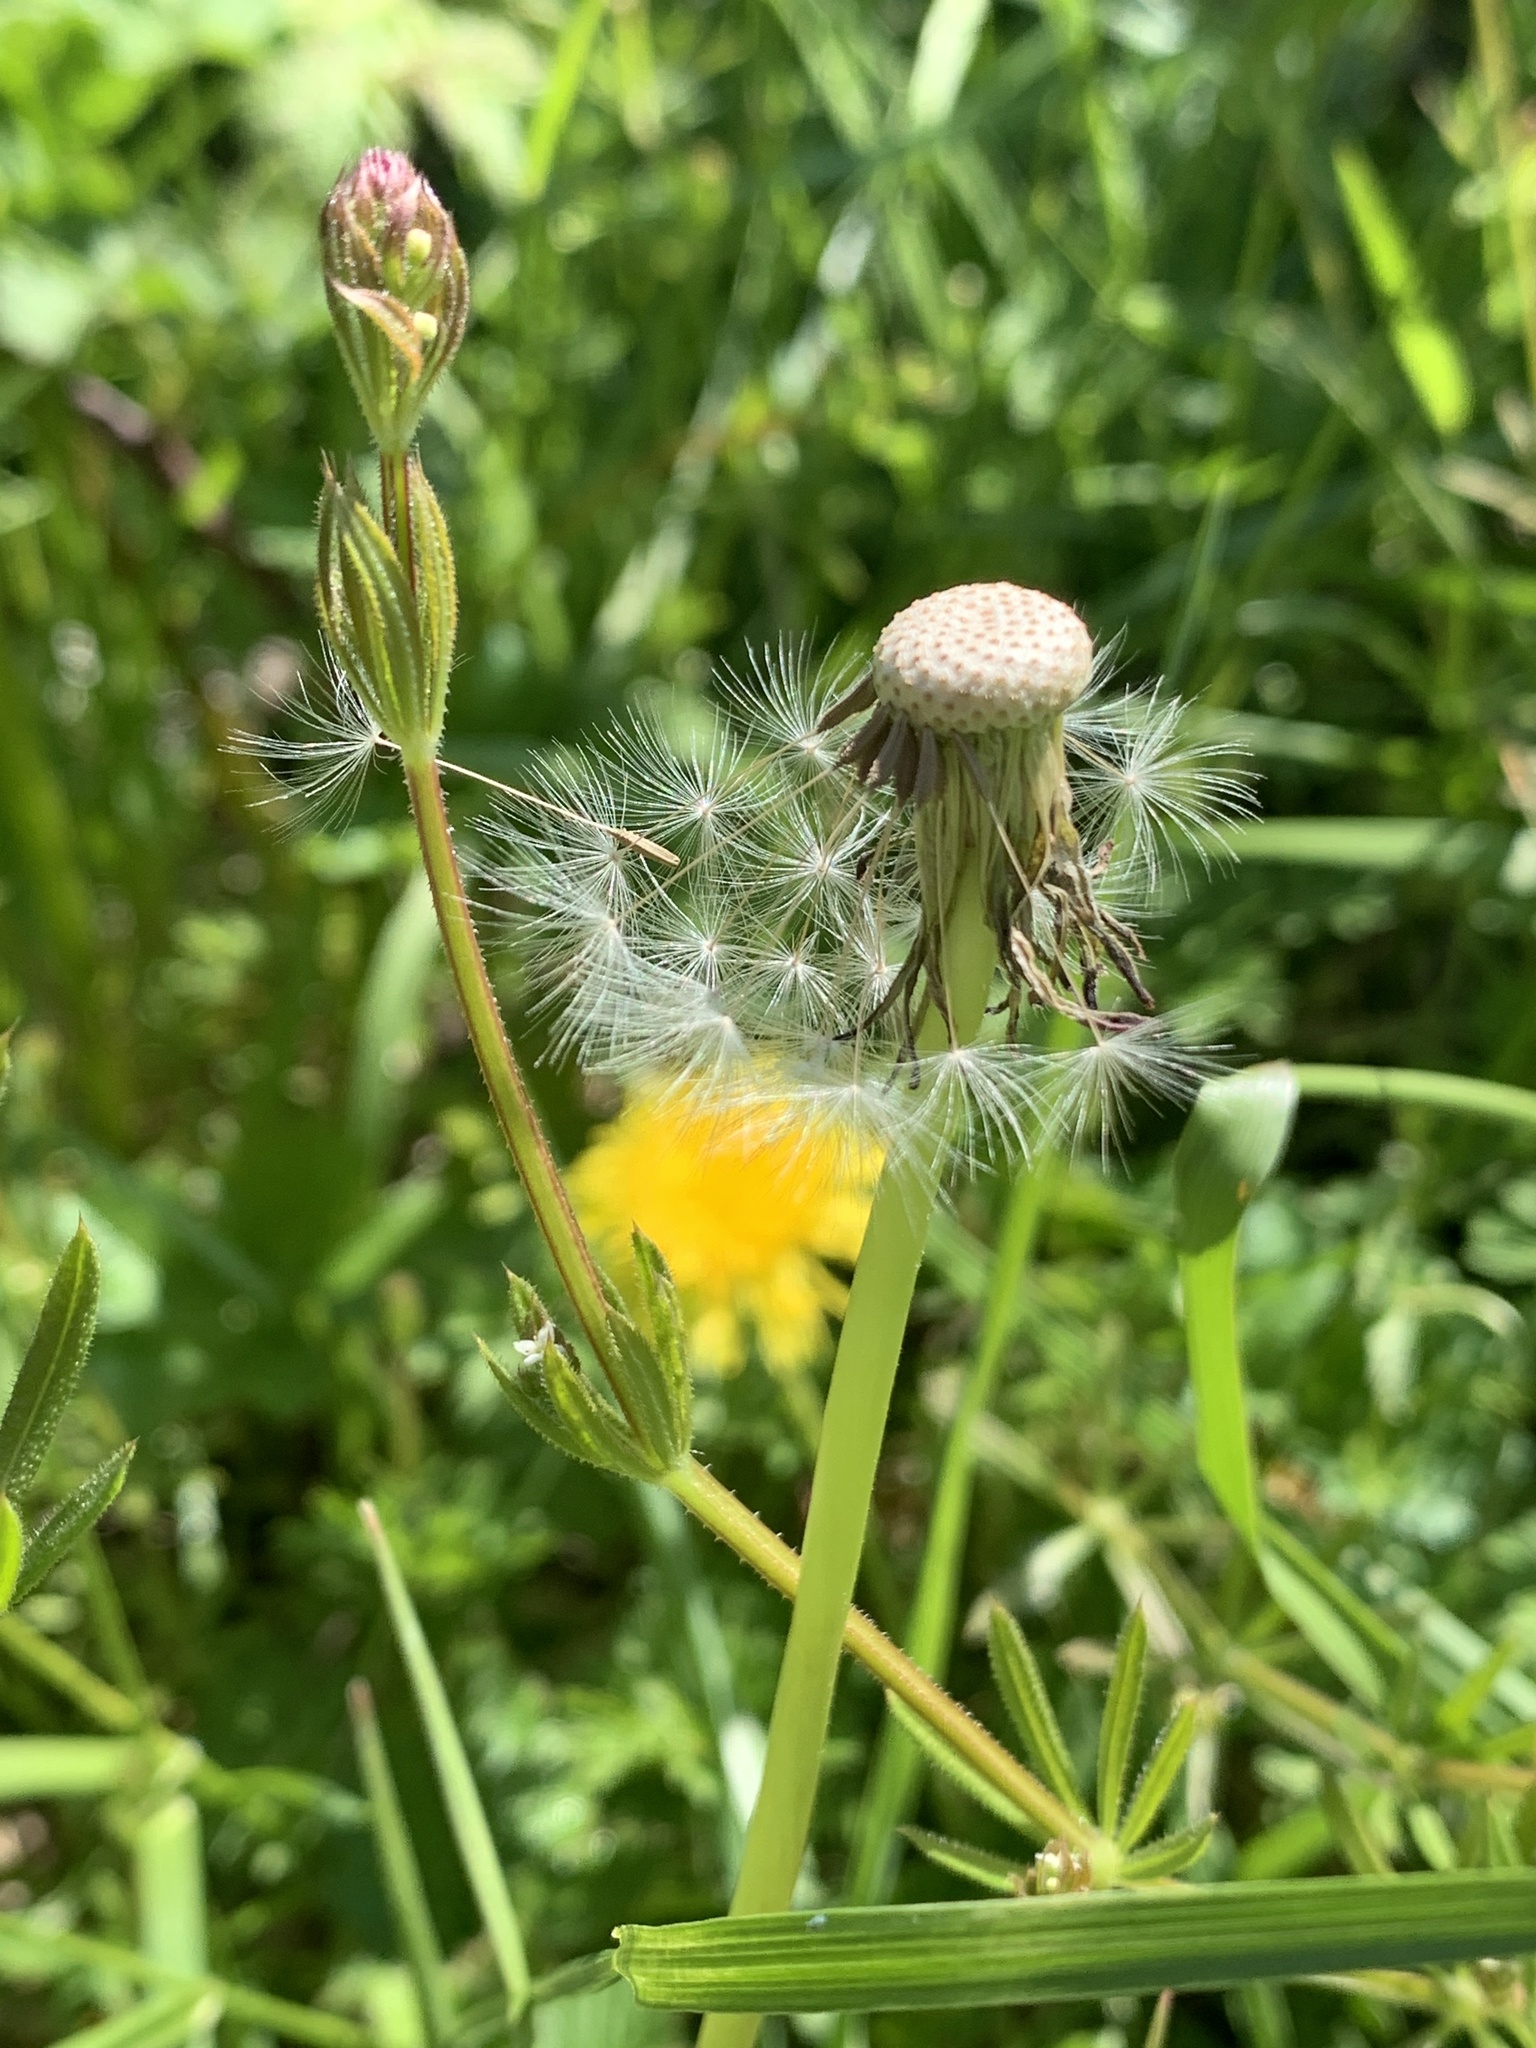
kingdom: Plantae
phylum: Tracheophyta
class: Magnoliopsida
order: Asterales
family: Asteraceae
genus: Taraxacum
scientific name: Taraxacum officinale
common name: Common dandelion
